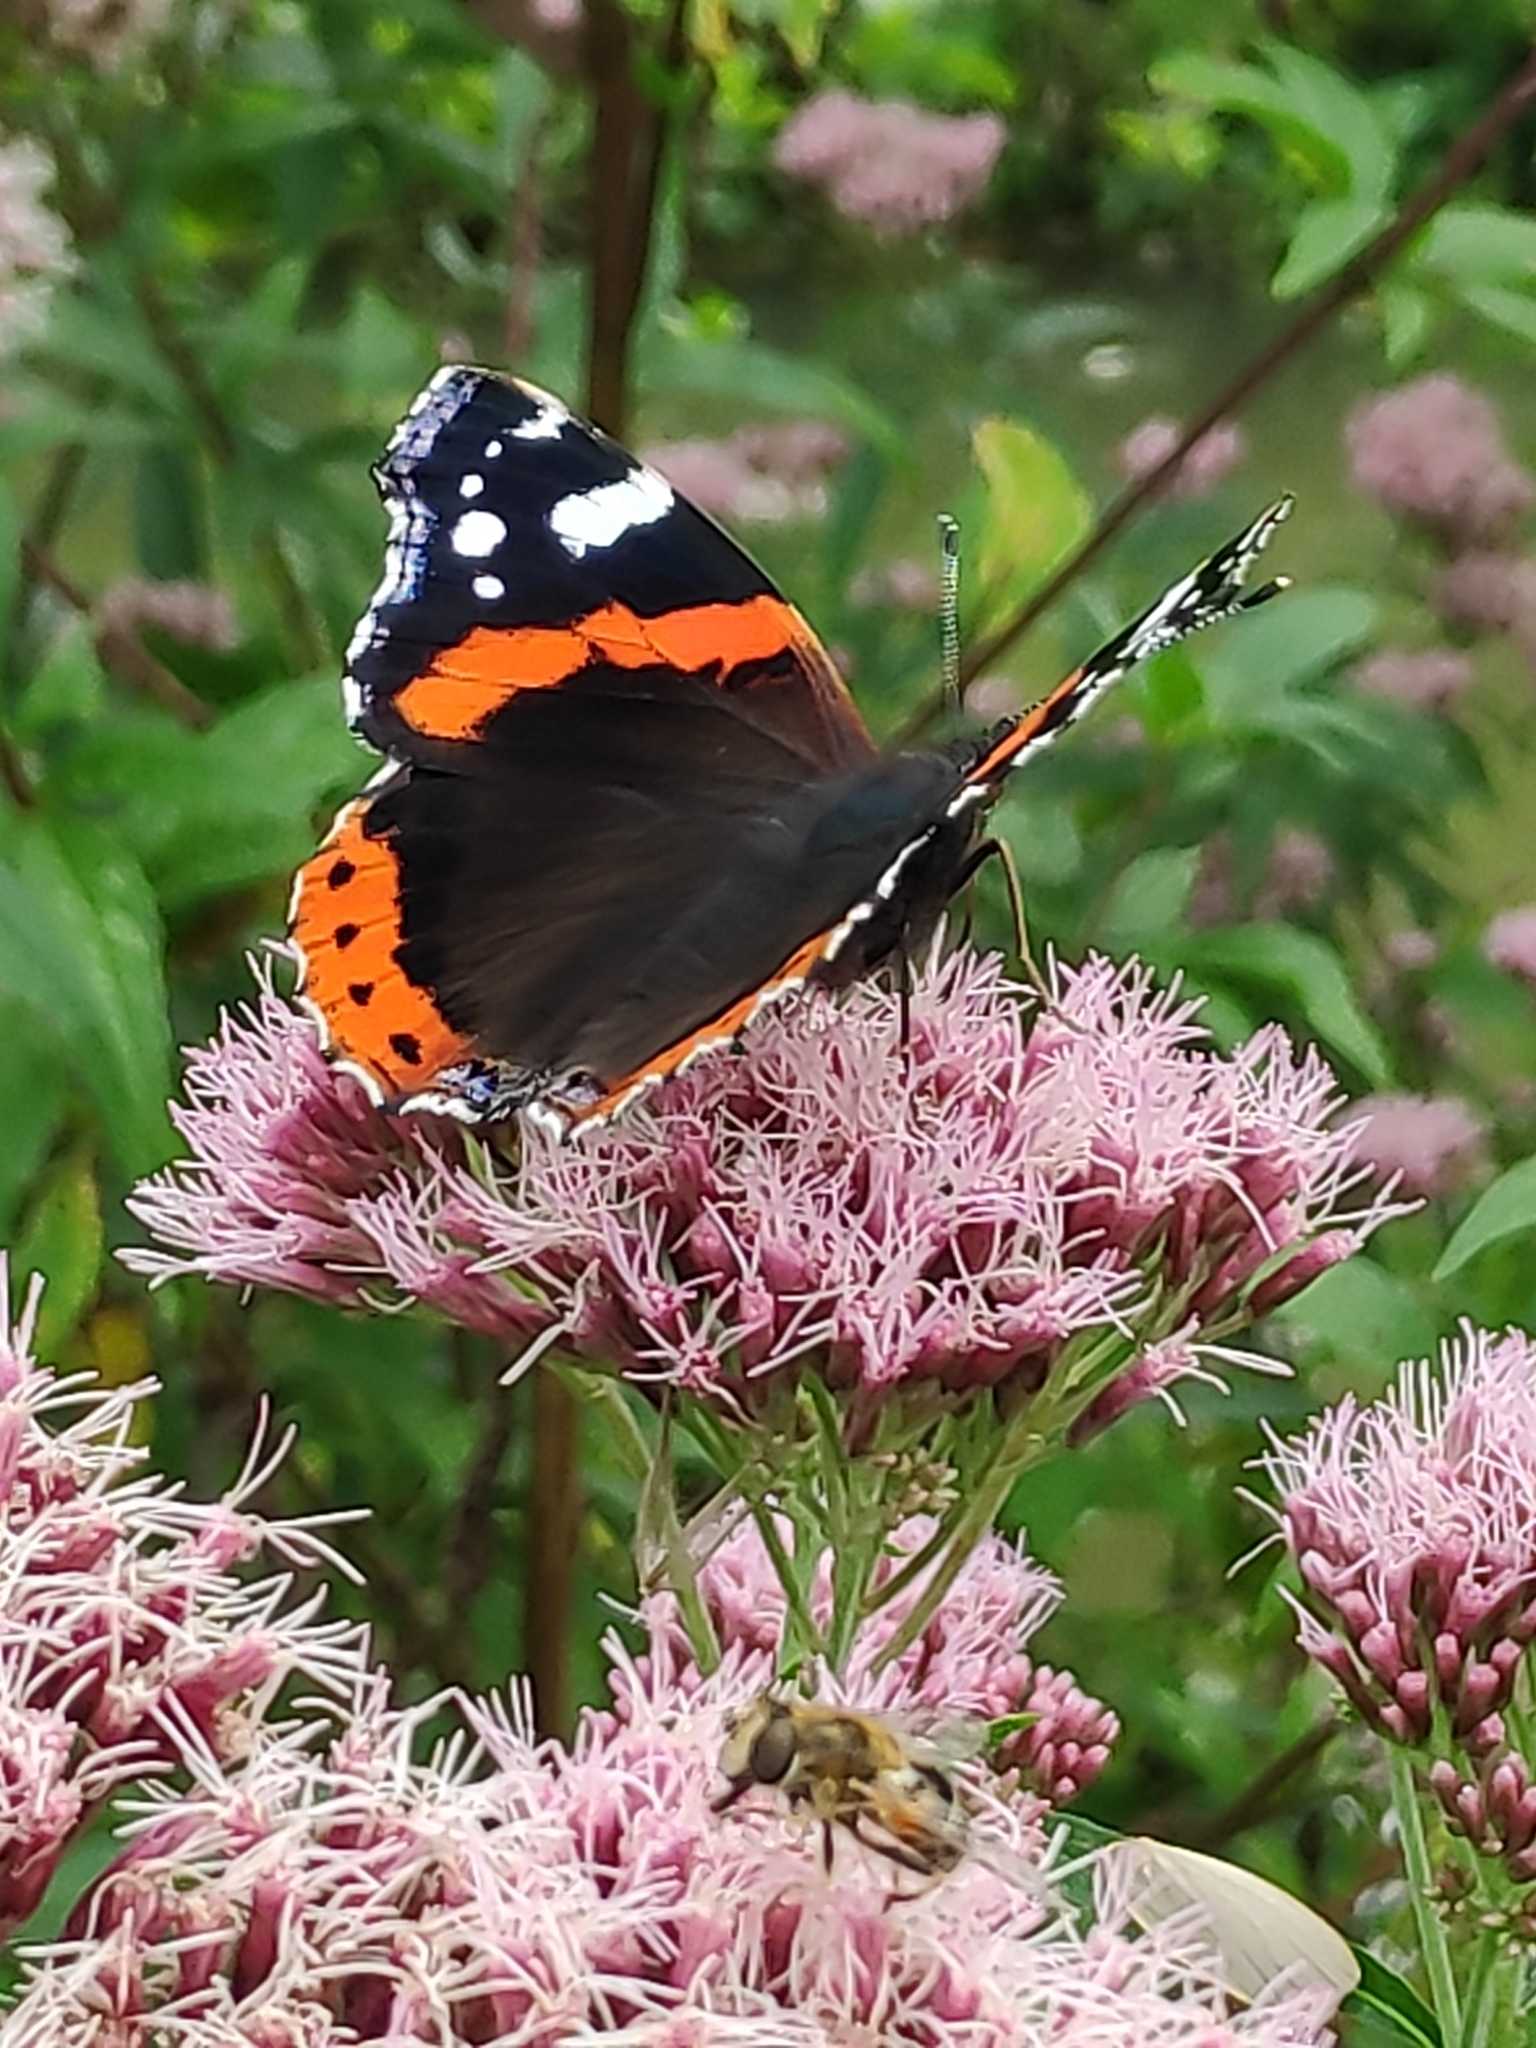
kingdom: Animalia
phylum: Arthropoda
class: Insecta
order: Lepidoptera
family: Nymphalidae
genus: Vanessa
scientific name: Vanessa atalanta
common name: Red admiral
